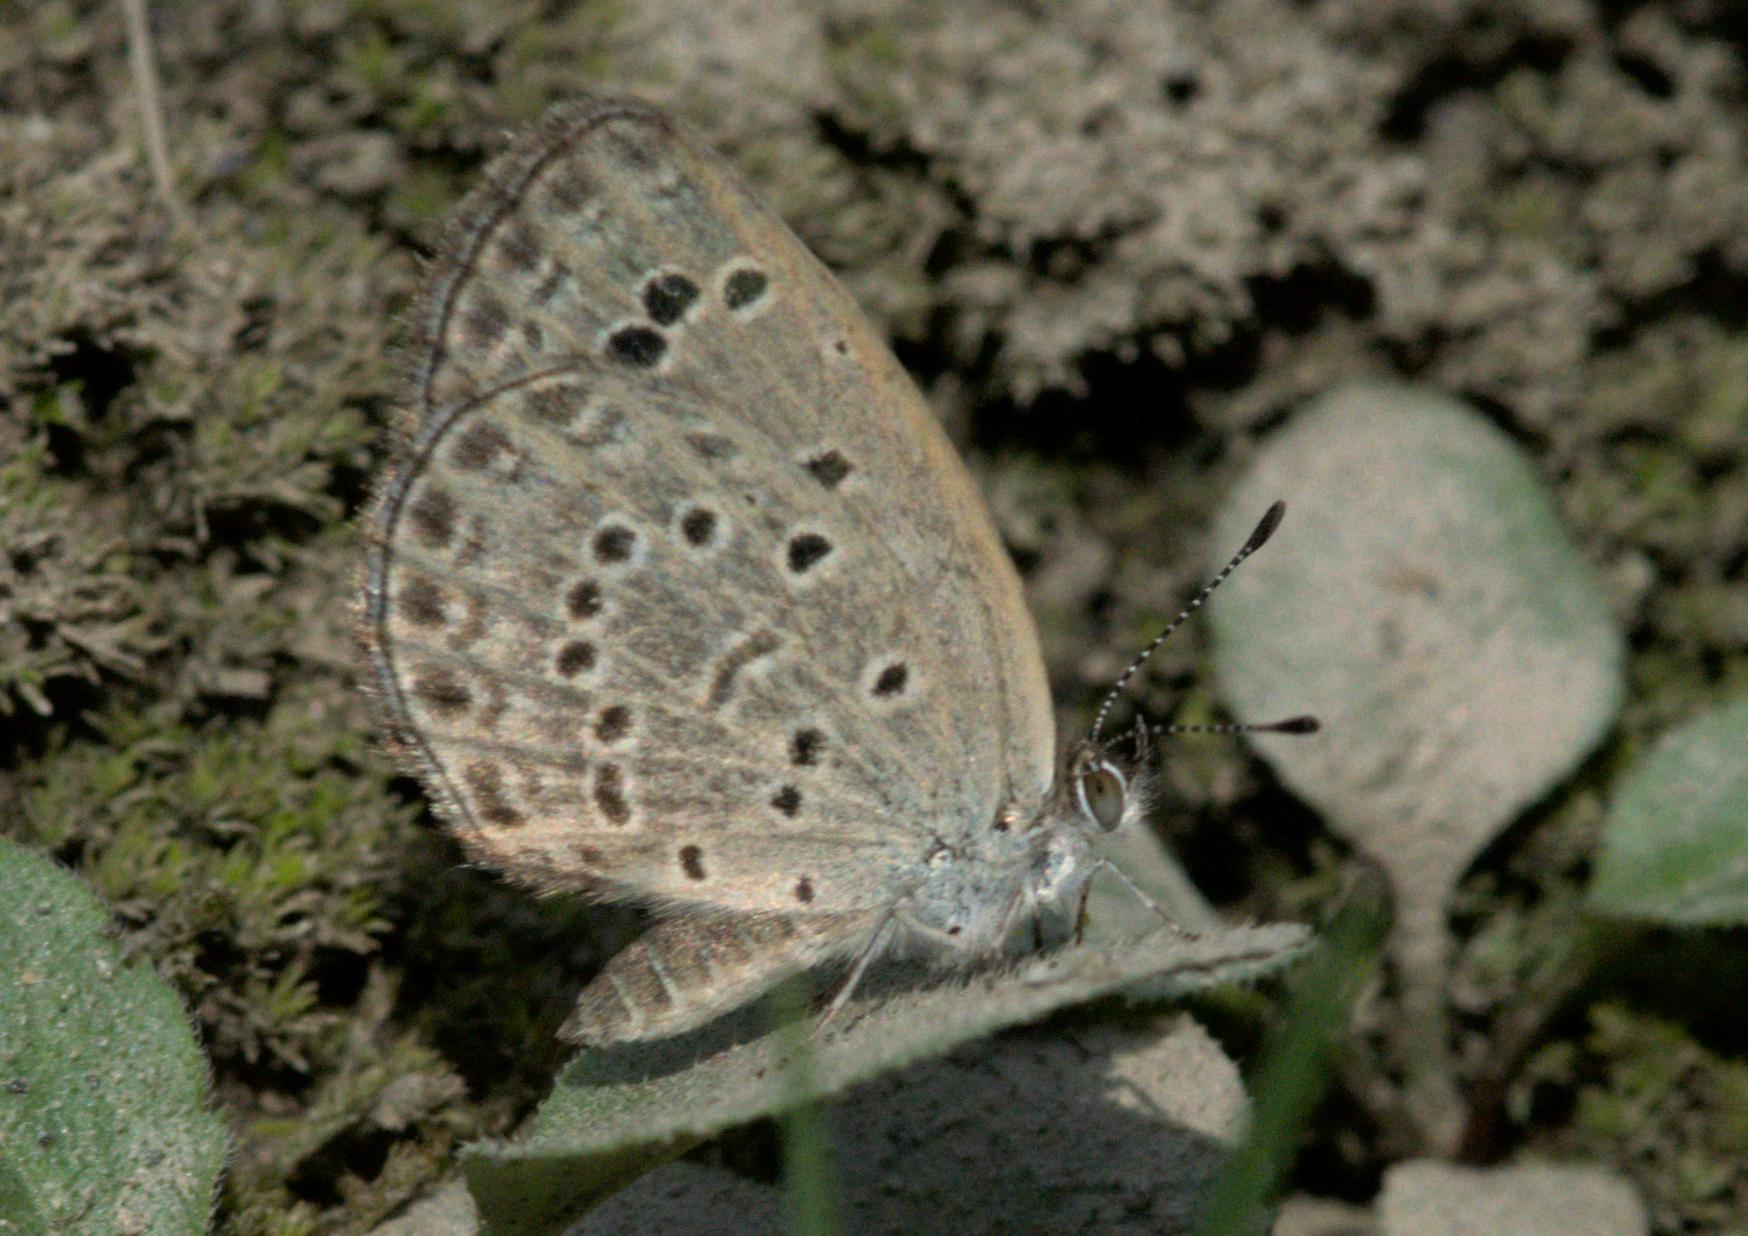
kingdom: Animalia
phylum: Arthropoda
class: Insecta
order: Lepidoptera
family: Lycaenidae
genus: Pseudozizeeria
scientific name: Pseudozizeeria maha
